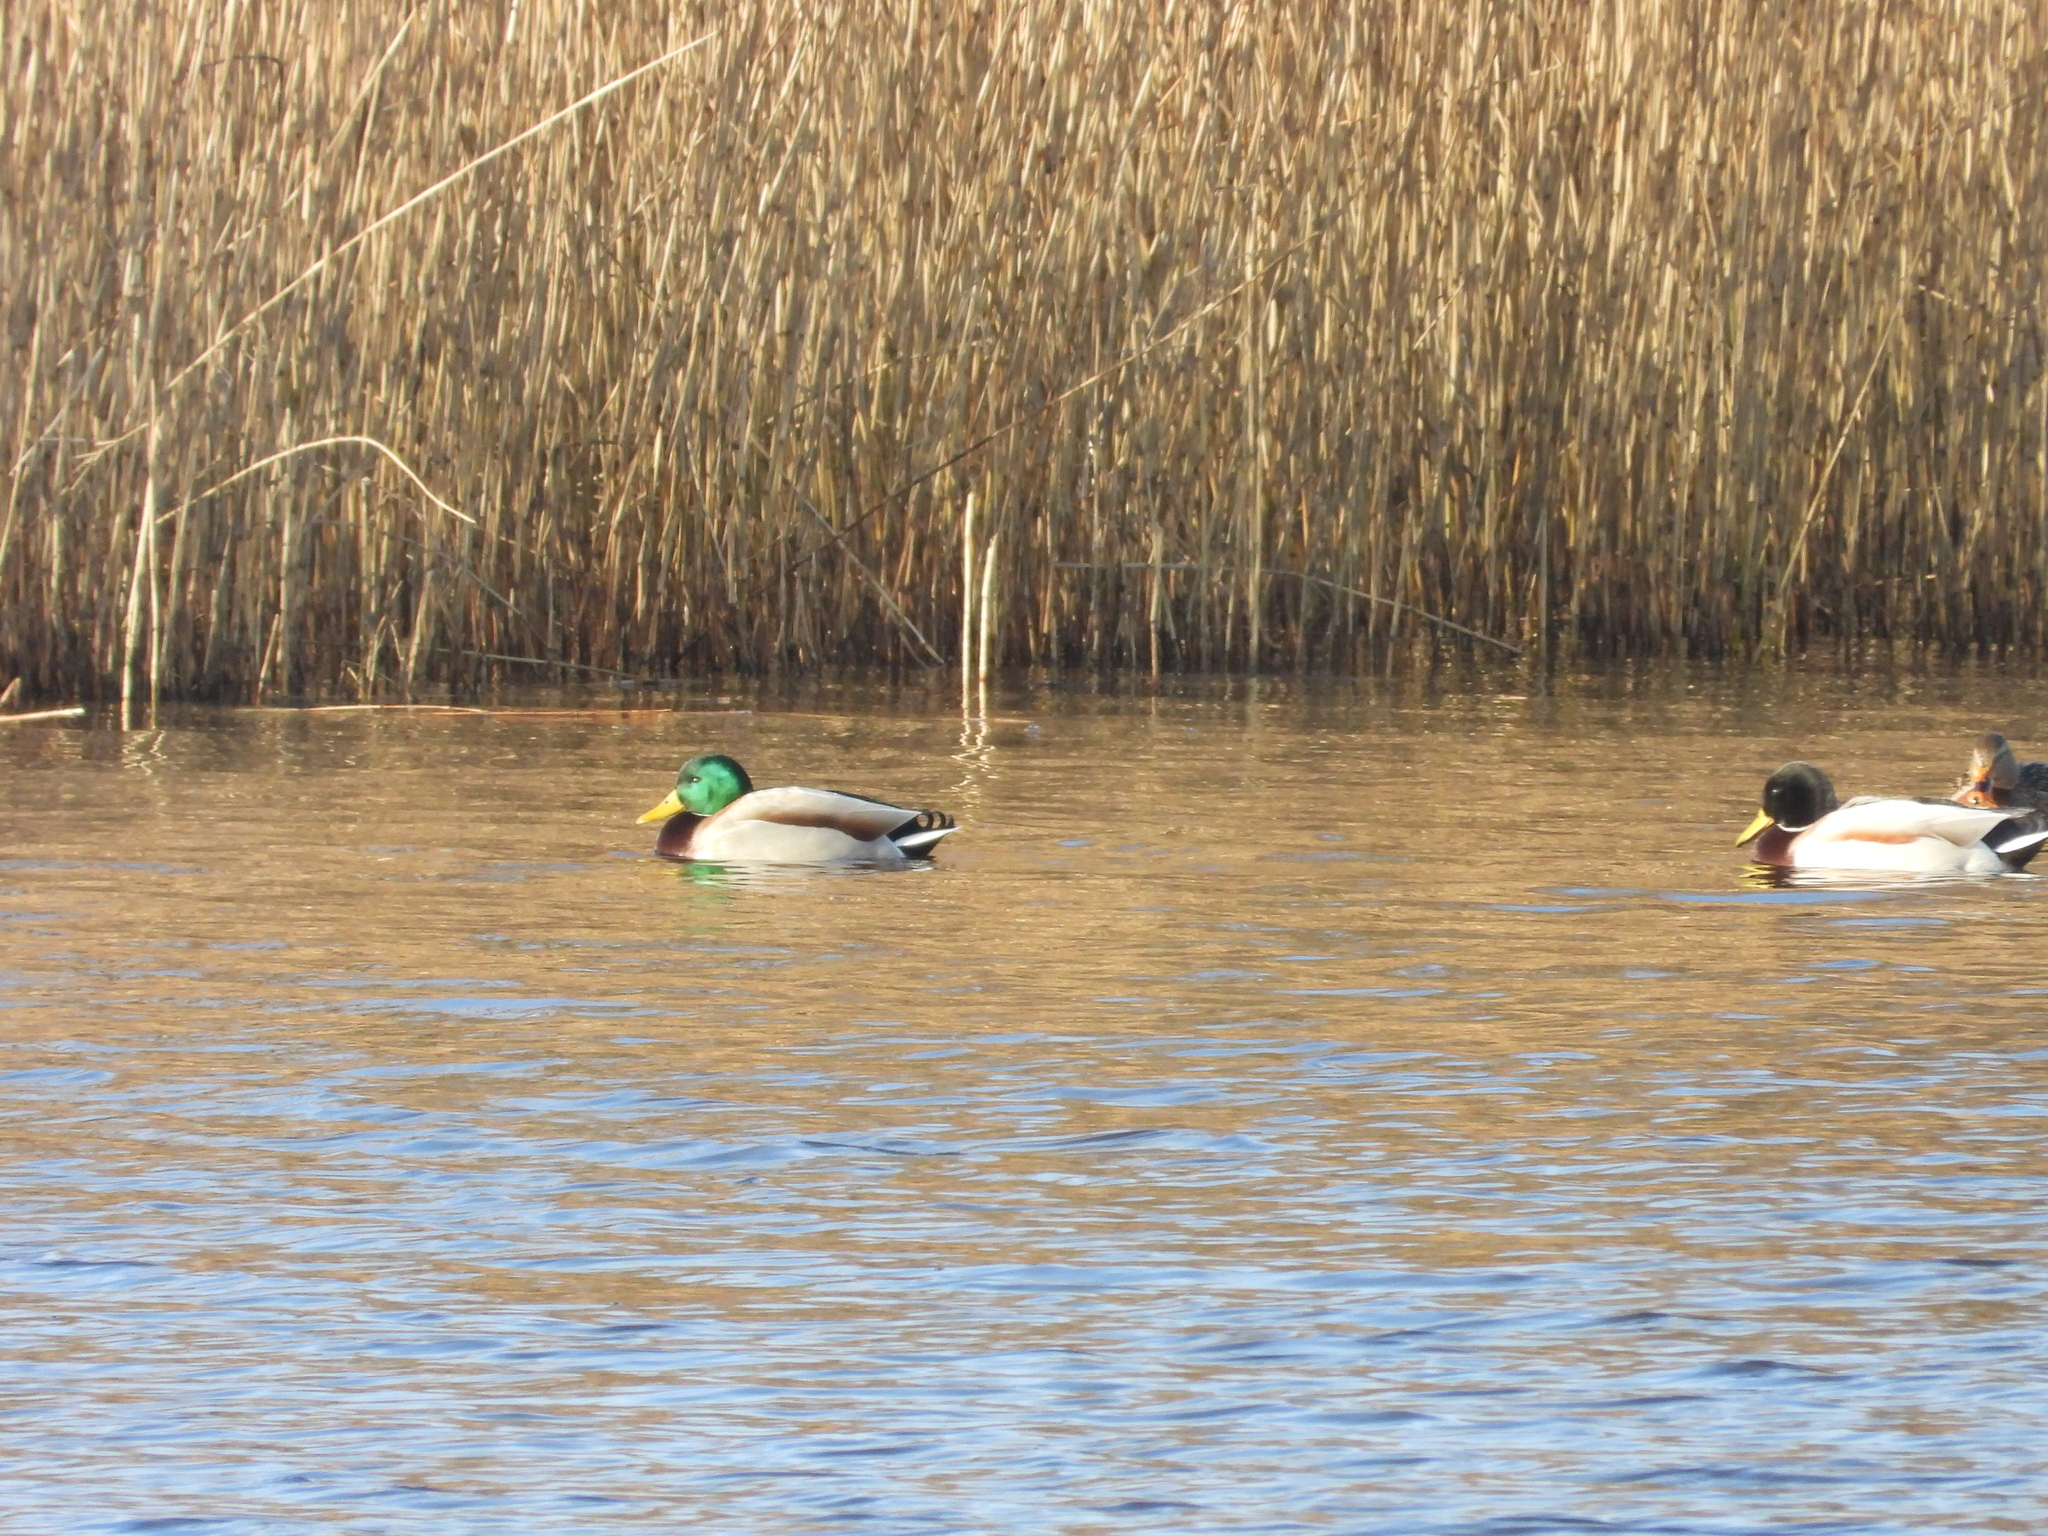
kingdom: Animalia
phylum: Chordata
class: Aves
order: Anseriformes
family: Anatidae
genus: Anas
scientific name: Anas platyrhynchos
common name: Mallard
